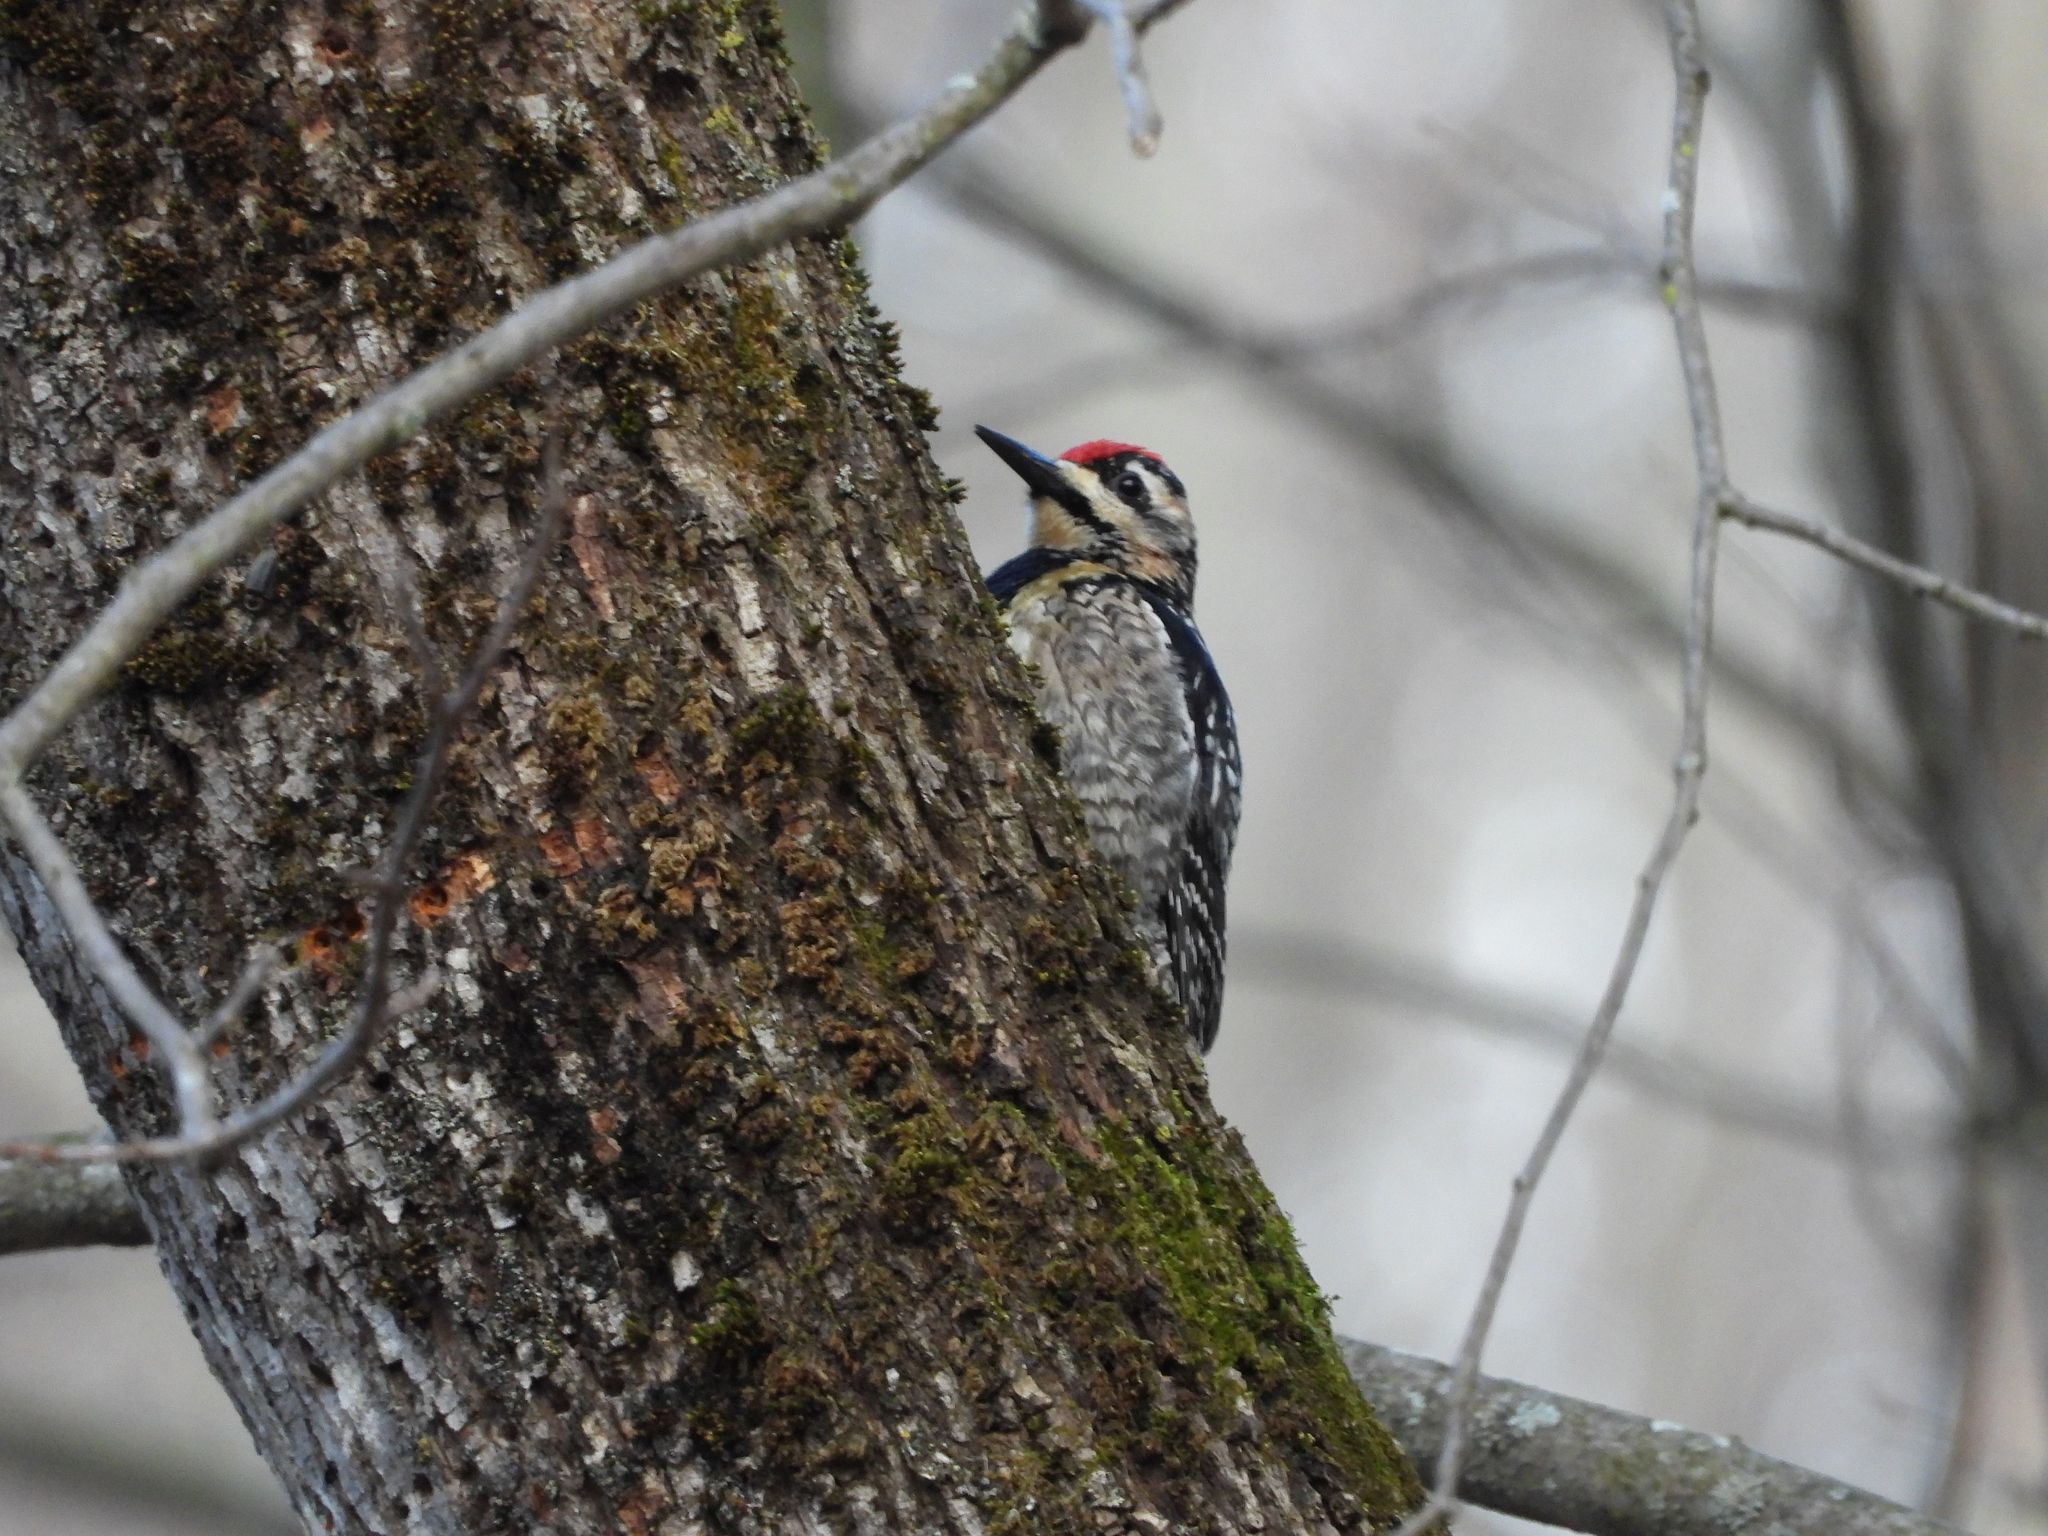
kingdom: Animalia
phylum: Chordata
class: Aves
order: Piciformes
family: Picidae
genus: Sphyrapicus
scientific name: Sphyrapicus varius
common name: Yellow-bellied sapsucker
